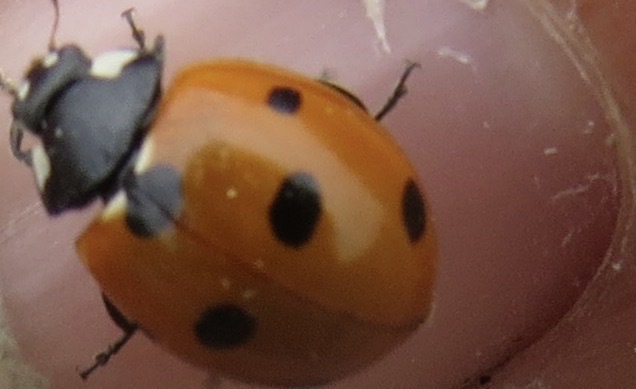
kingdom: Animalia
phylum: Arthropoda
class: Insecta
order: Coleoptera
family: Coccinellidae
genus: Coccinella
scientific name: Coccinella septempunctata
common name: Sevenspotted lady beetle
